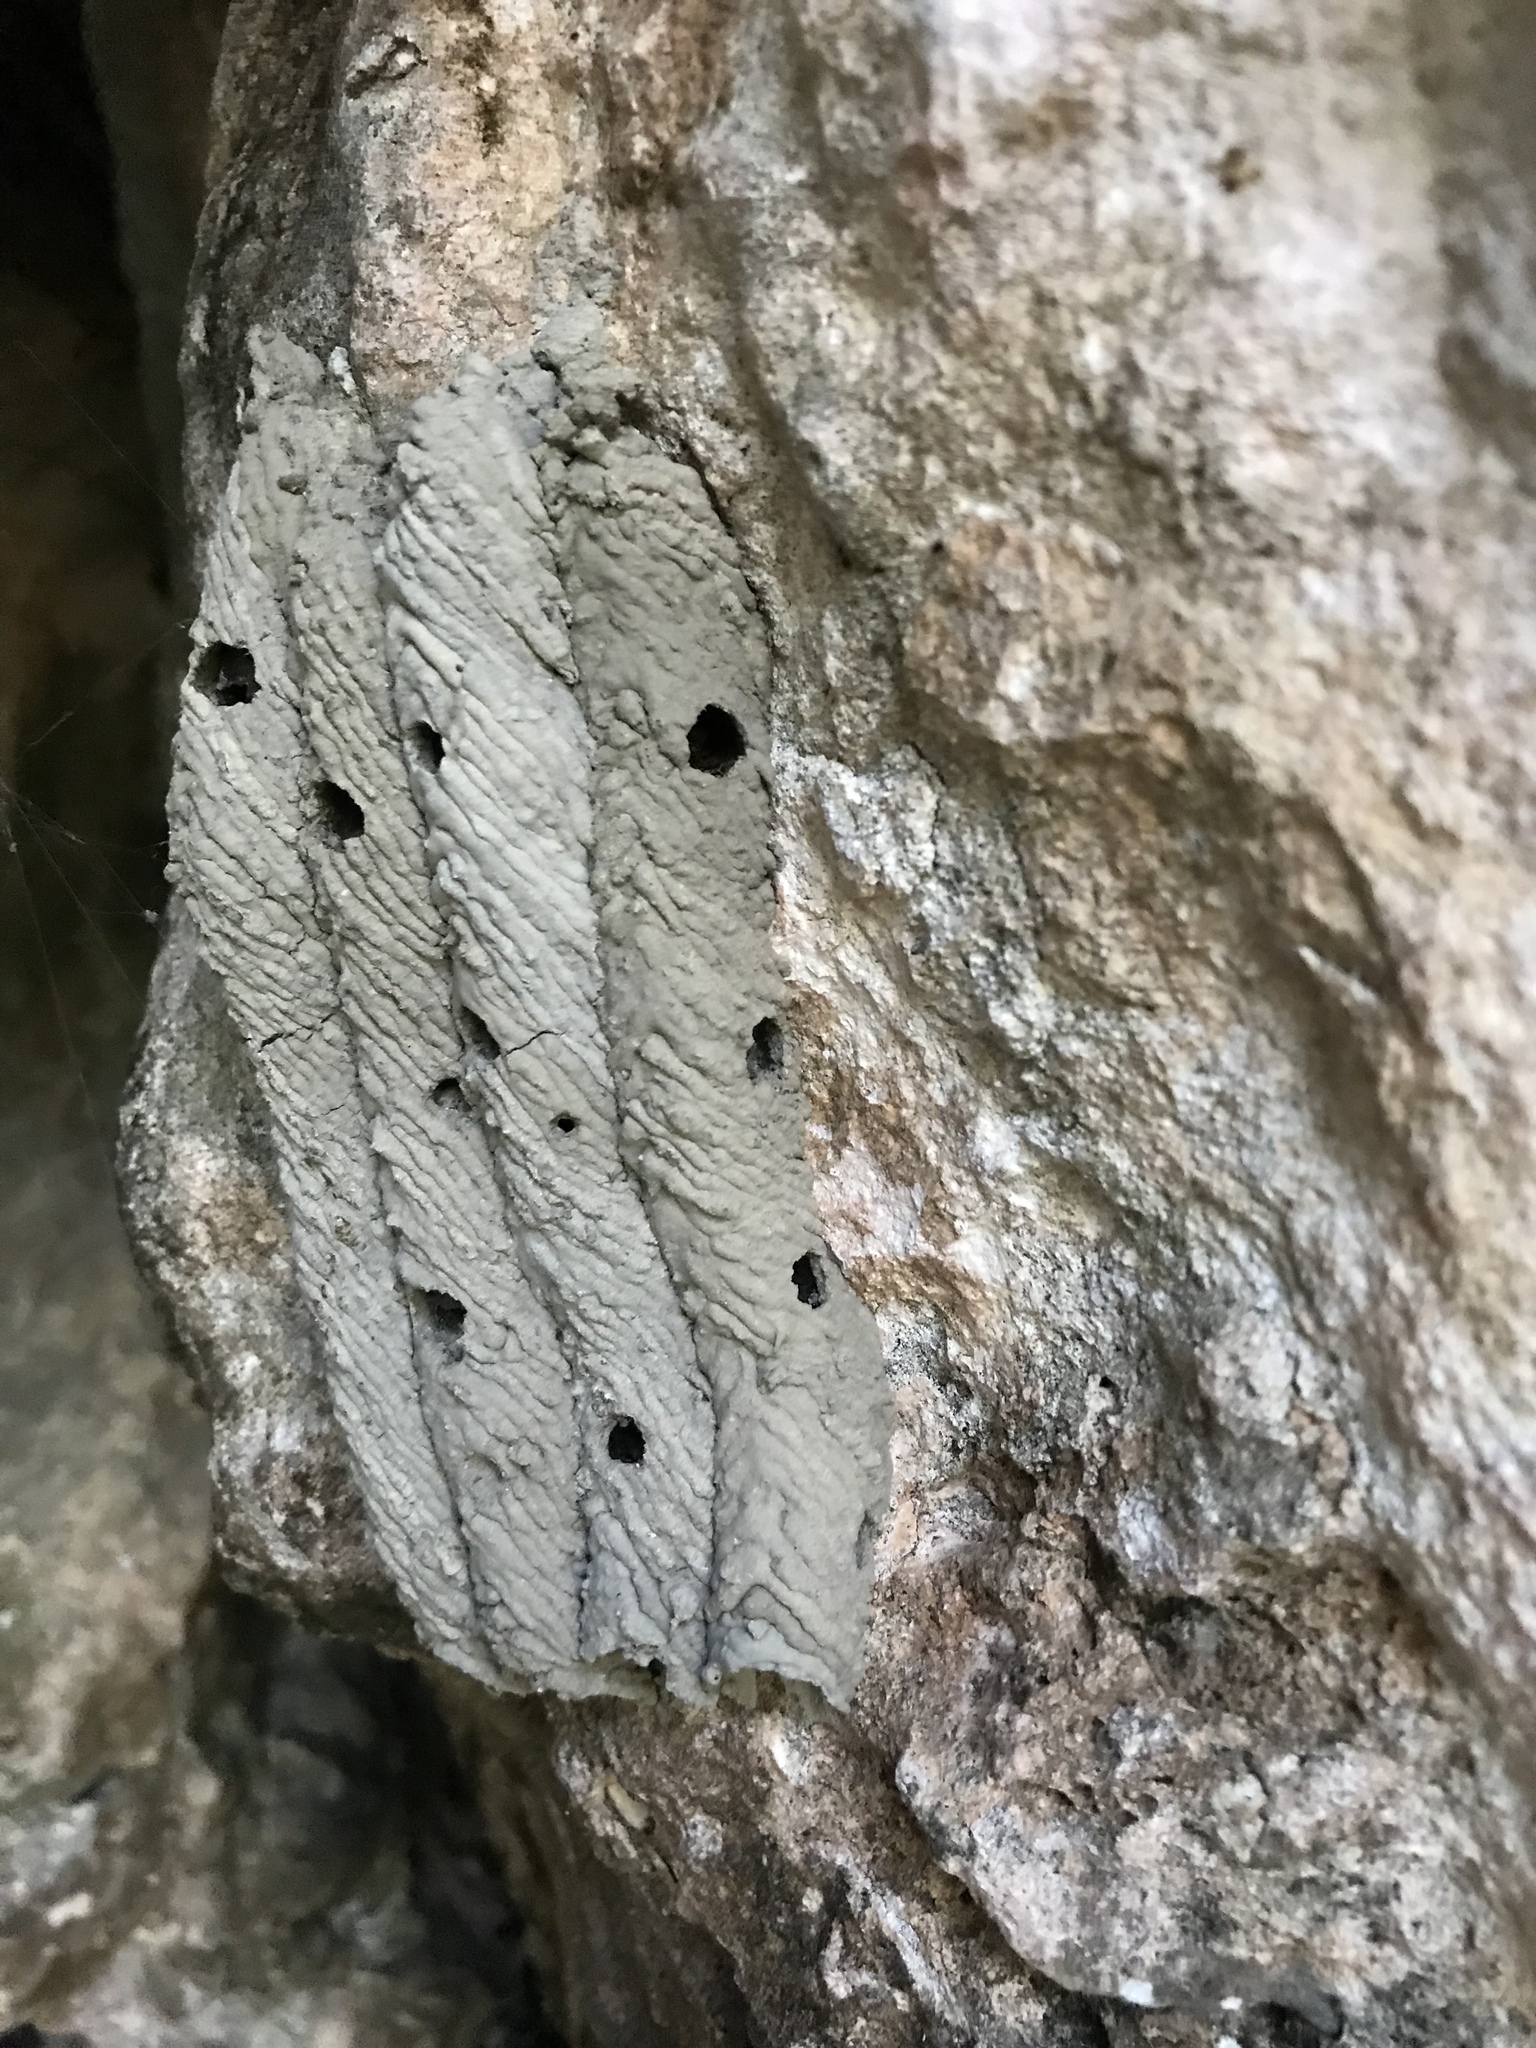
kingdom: Animalia
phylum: Arthropoda
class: Insecta
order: Hymenoptera
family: Crabronidae
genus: Trypoxylon
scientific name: Trypoxylon politum
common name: Organ-pipe mud-dauber wasp
